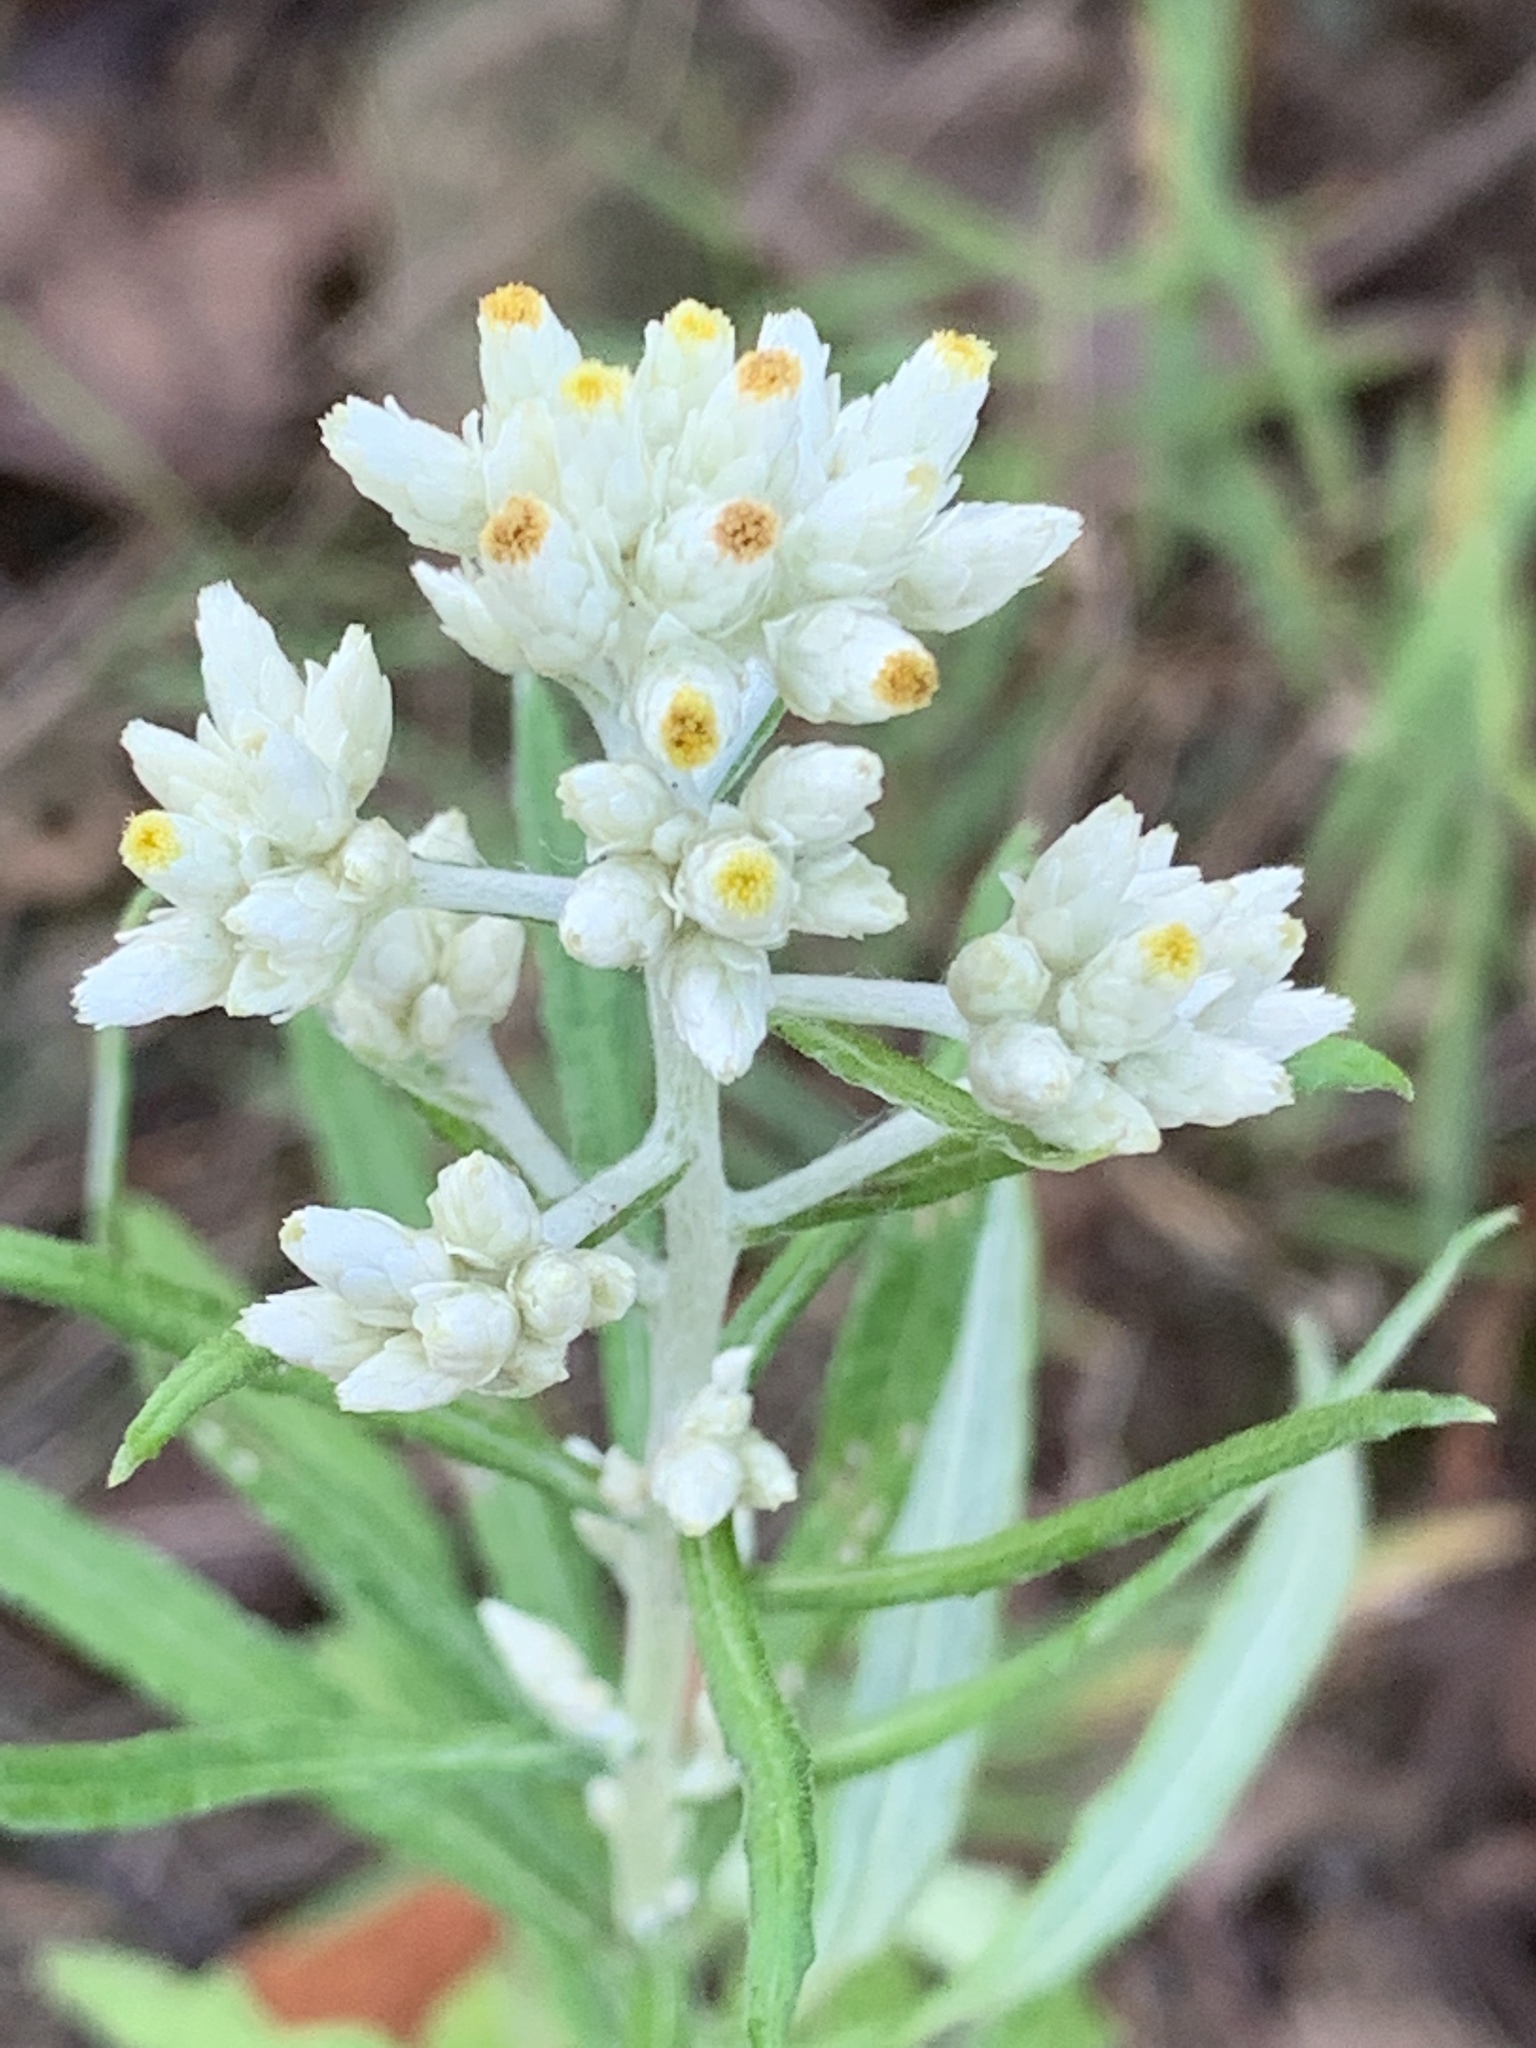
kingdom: Plantae
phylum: Tracheophyta
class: Magnoliopsida
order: Asterales
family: Asteraceae
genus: Pseudognaphalium
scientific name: Pseudognaphalium obtusifolium
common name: Eastern rabbit-tobacco
